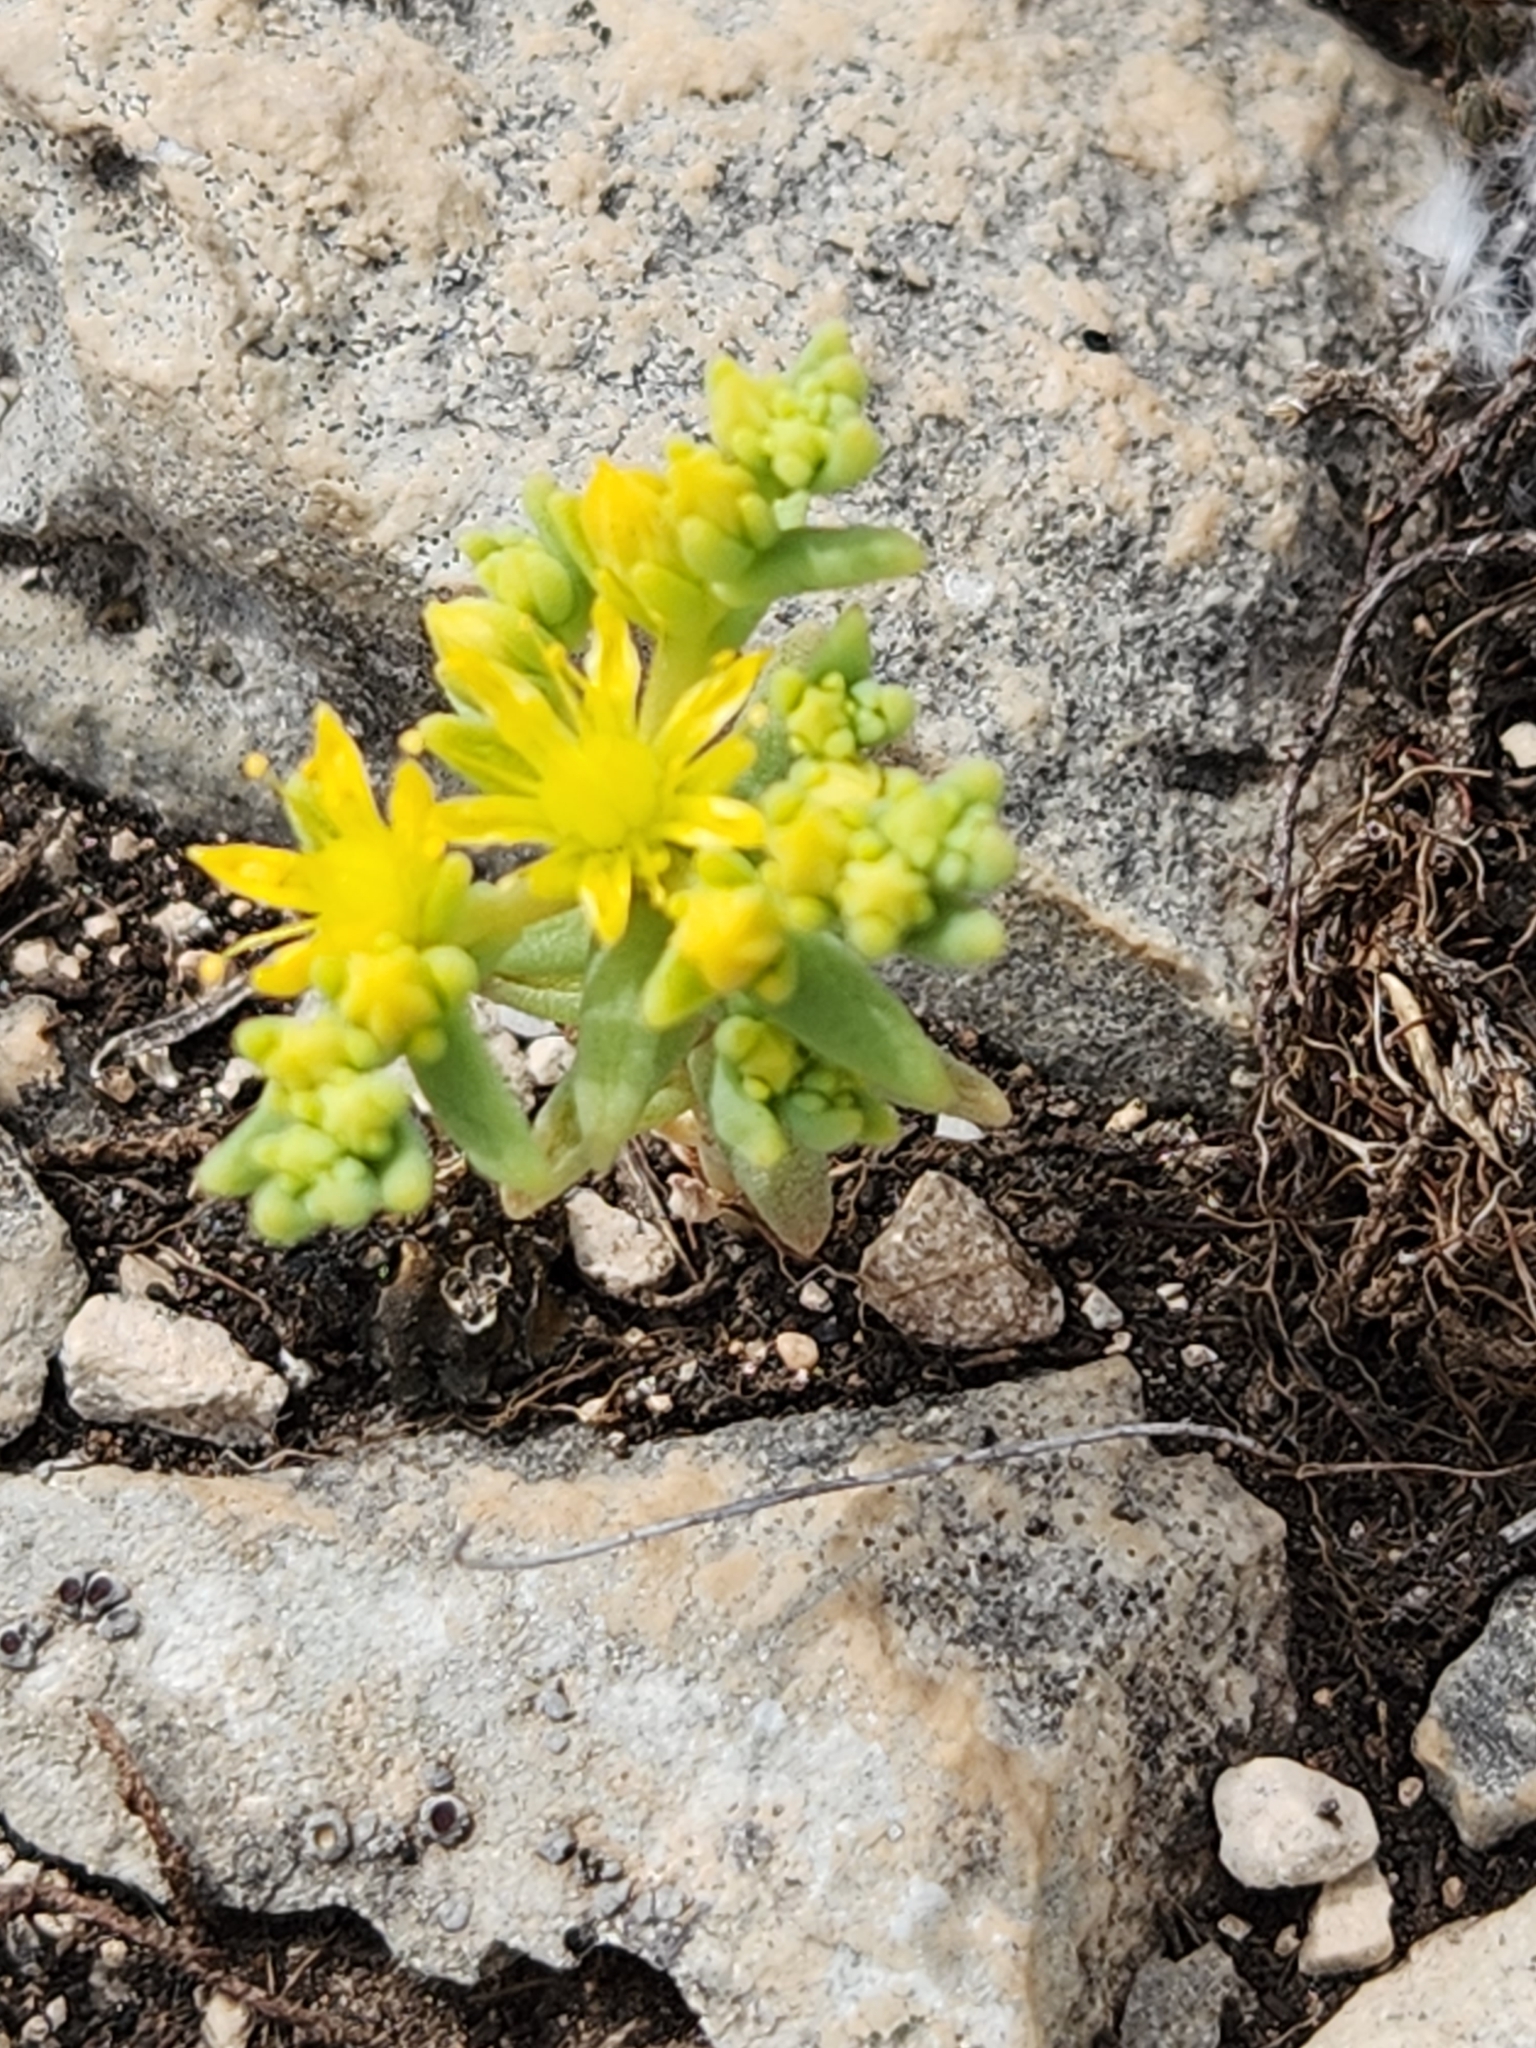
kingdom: Plantae
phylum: Tracheophyta
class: Magnoliopsida
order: Saxifragales
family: Crassulaceae
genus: Sedum
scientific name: Sedum nuttallii
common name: Yellow stonecrop
